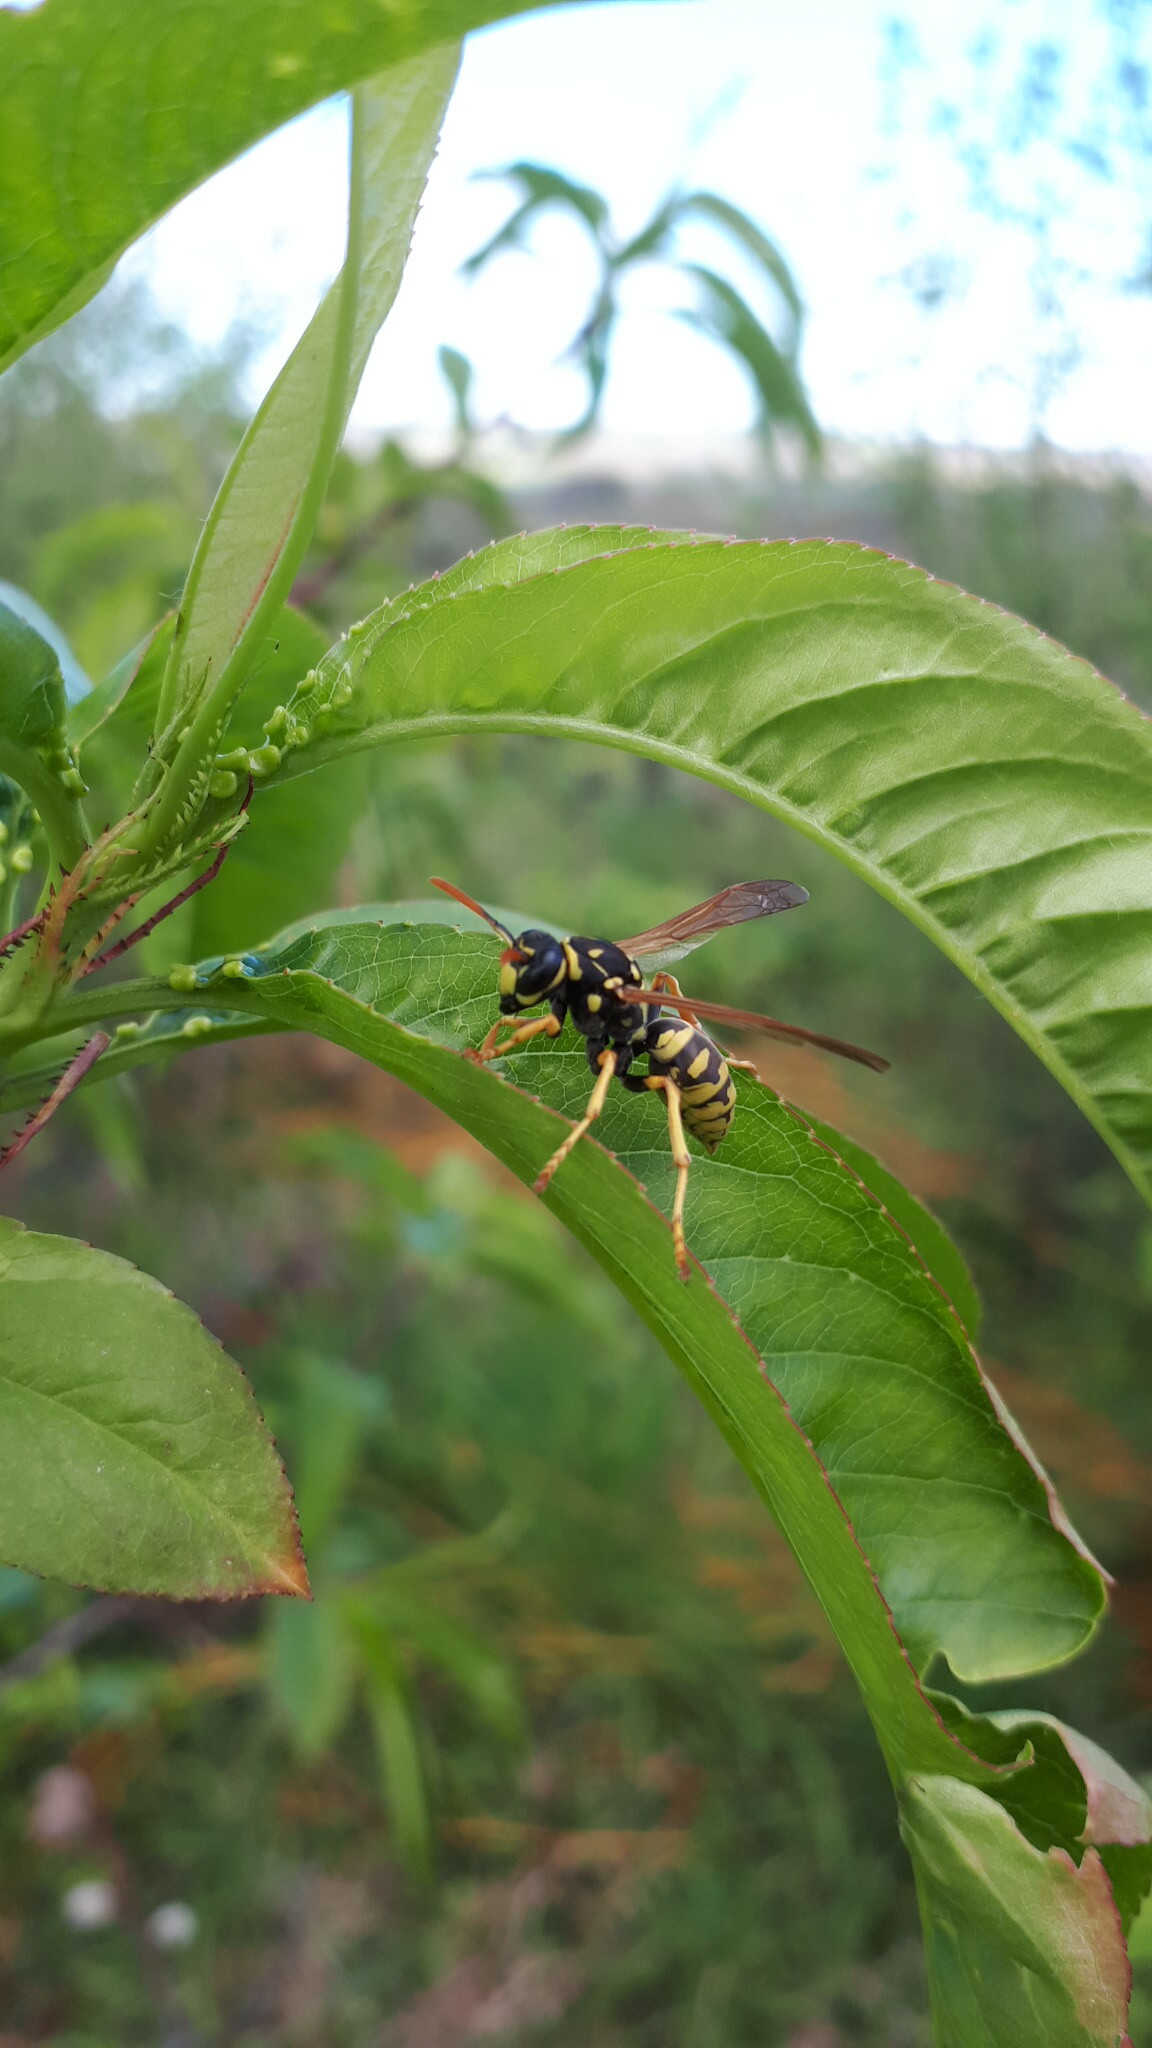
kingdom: Animalia
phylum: Arthropoda
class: Insecta
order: Hymenoptera
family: Eumenidae
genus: Polistes
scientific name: Polistes dominula
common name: Paper wasp
